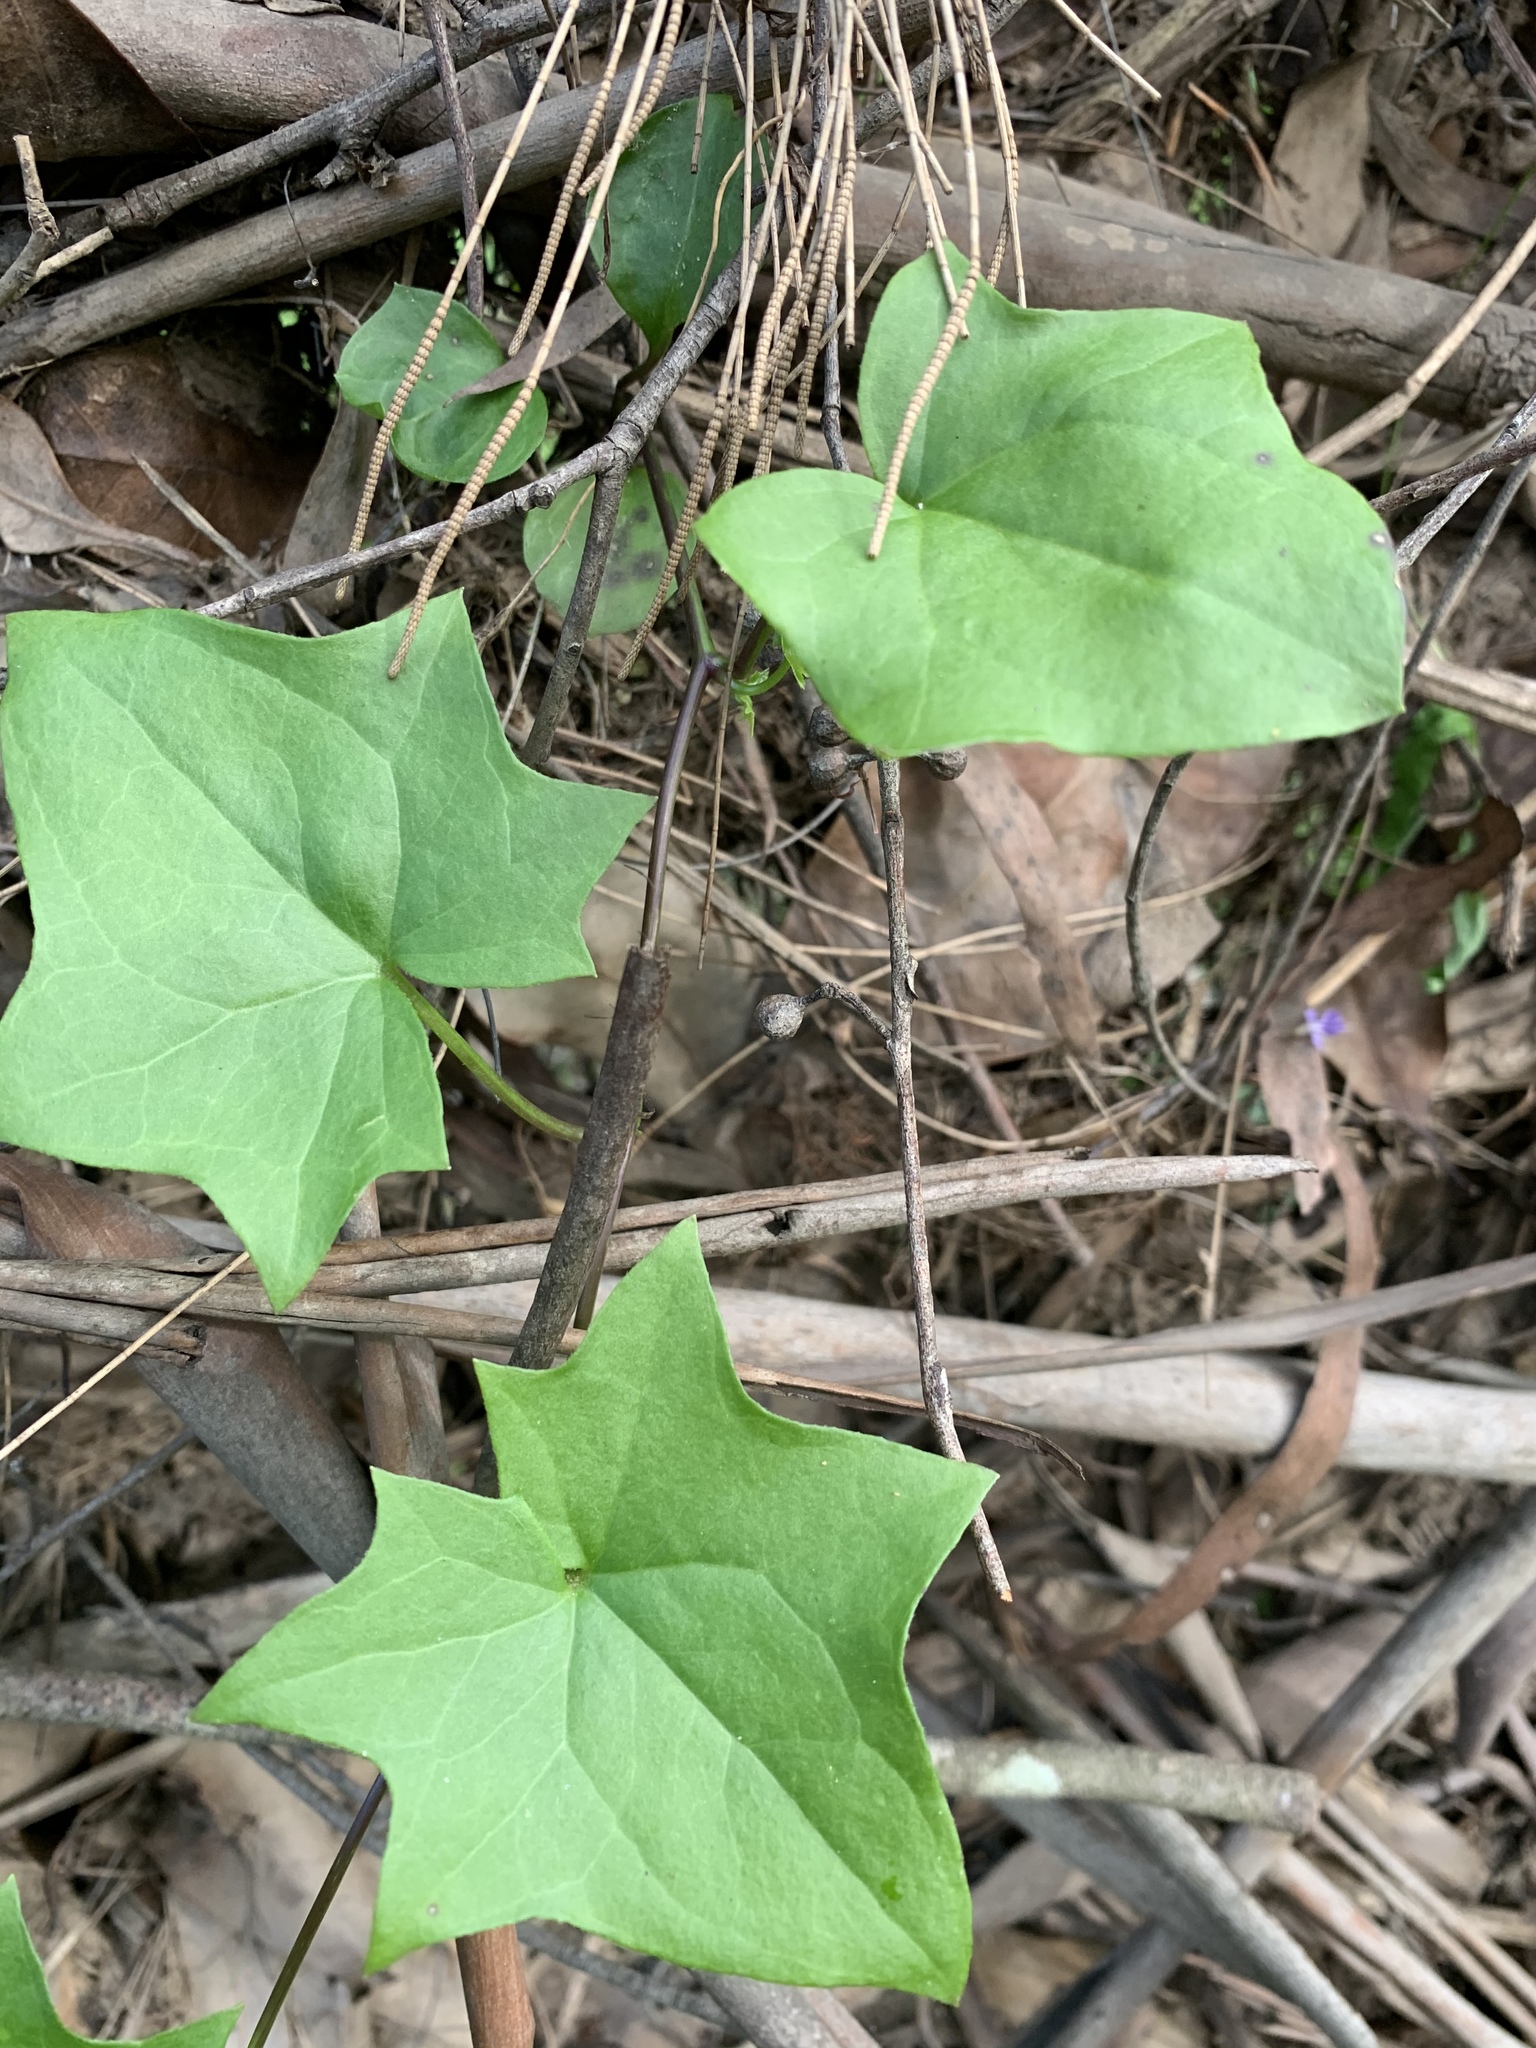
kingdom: Plantae
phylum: Tracheophyta
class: Magnoliopsida
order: Asterales
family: Asteraceae
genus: Delairea
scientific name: Delairea odorata
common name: Cape-ivy
